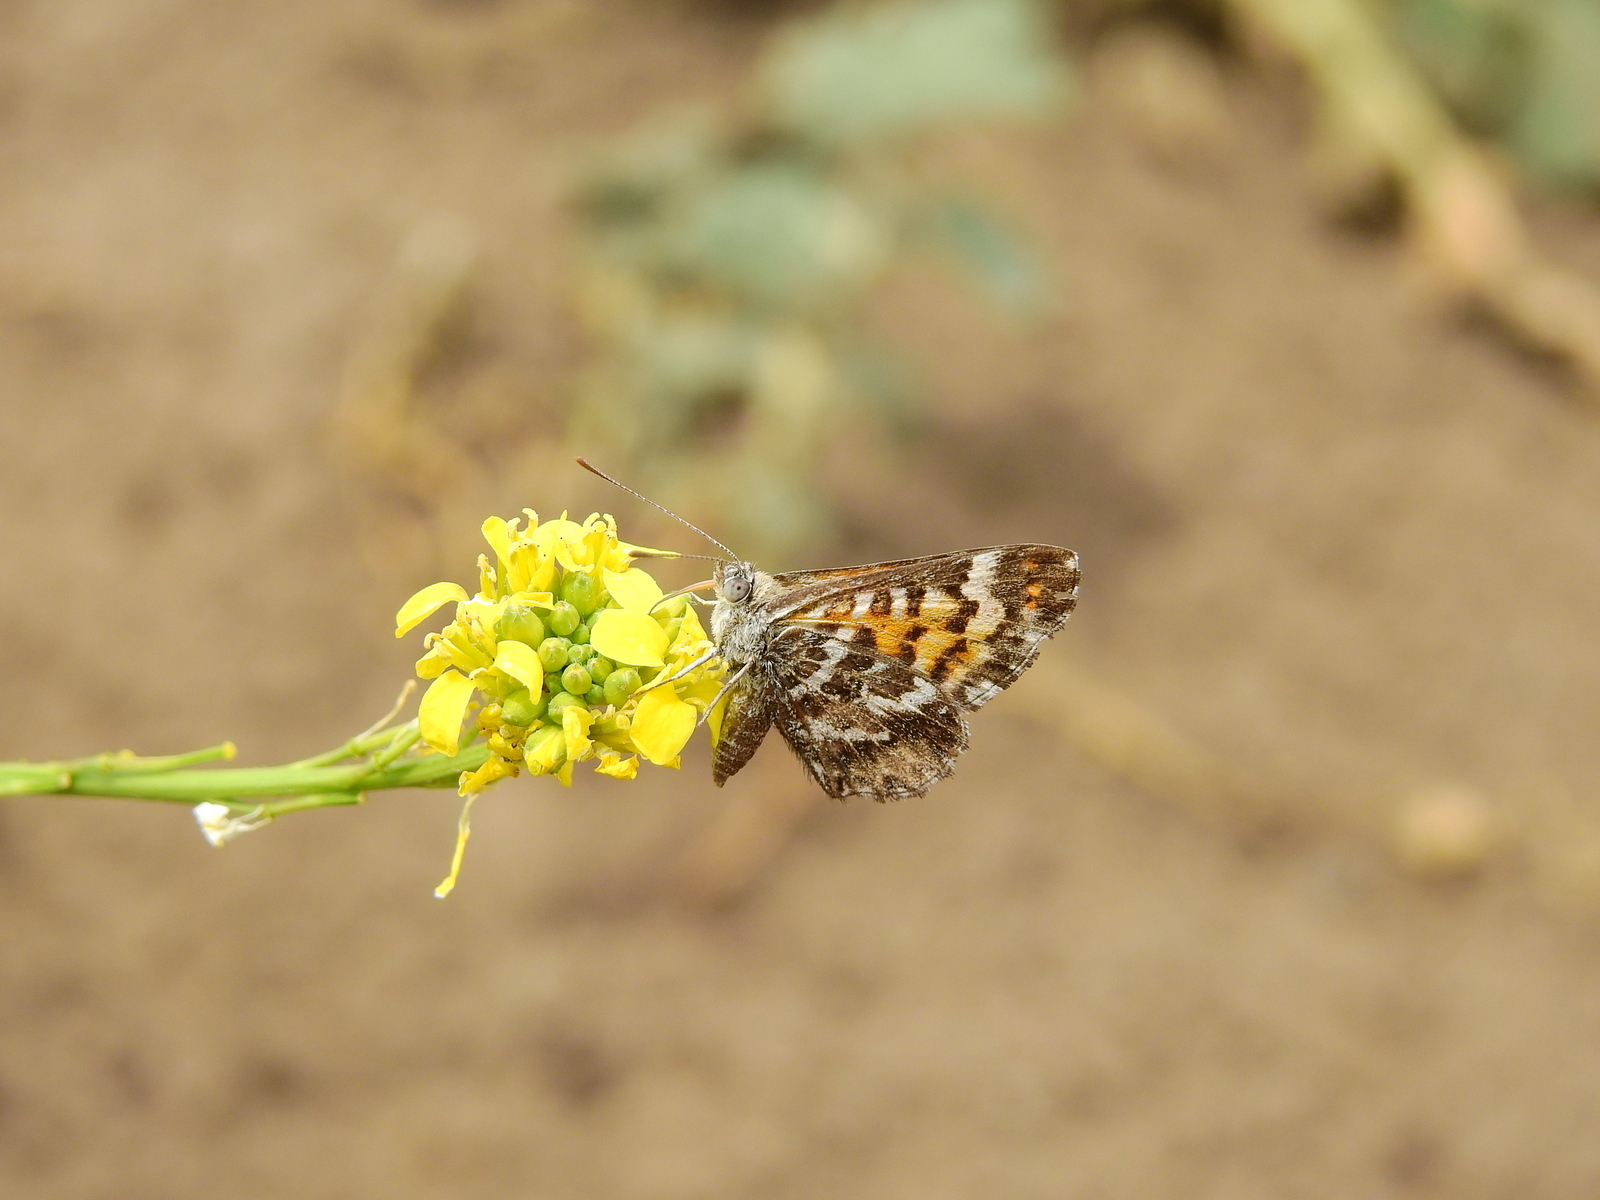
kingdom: Animalia
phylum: Arthropoda
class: Insecta
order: Lepidoptera
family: Lycaenidae
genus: Aricoris
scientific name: Aricoris chilensis
